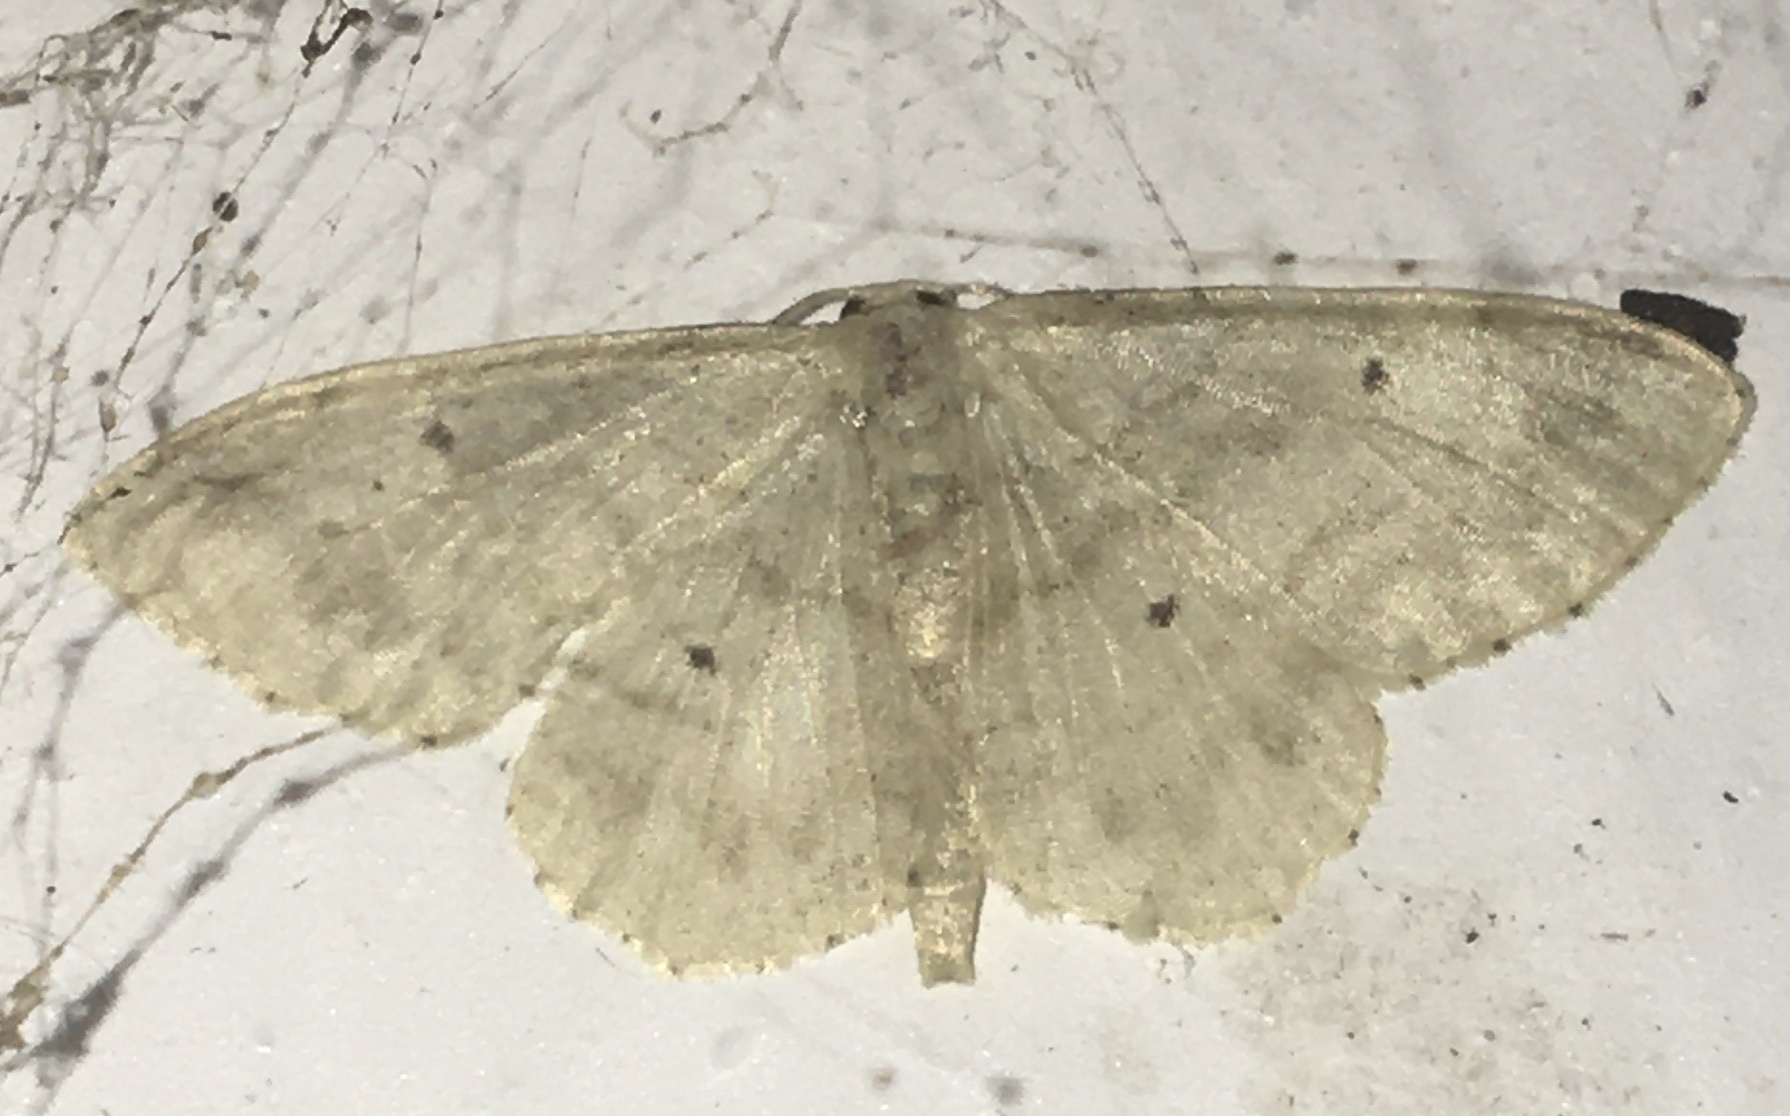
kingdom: Animalia
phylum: Arthropoda
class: Insecta
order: Lepidoptera
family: Geometridae
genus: Idaea
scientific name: Idaea biselata
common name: Small fan-footed wave
